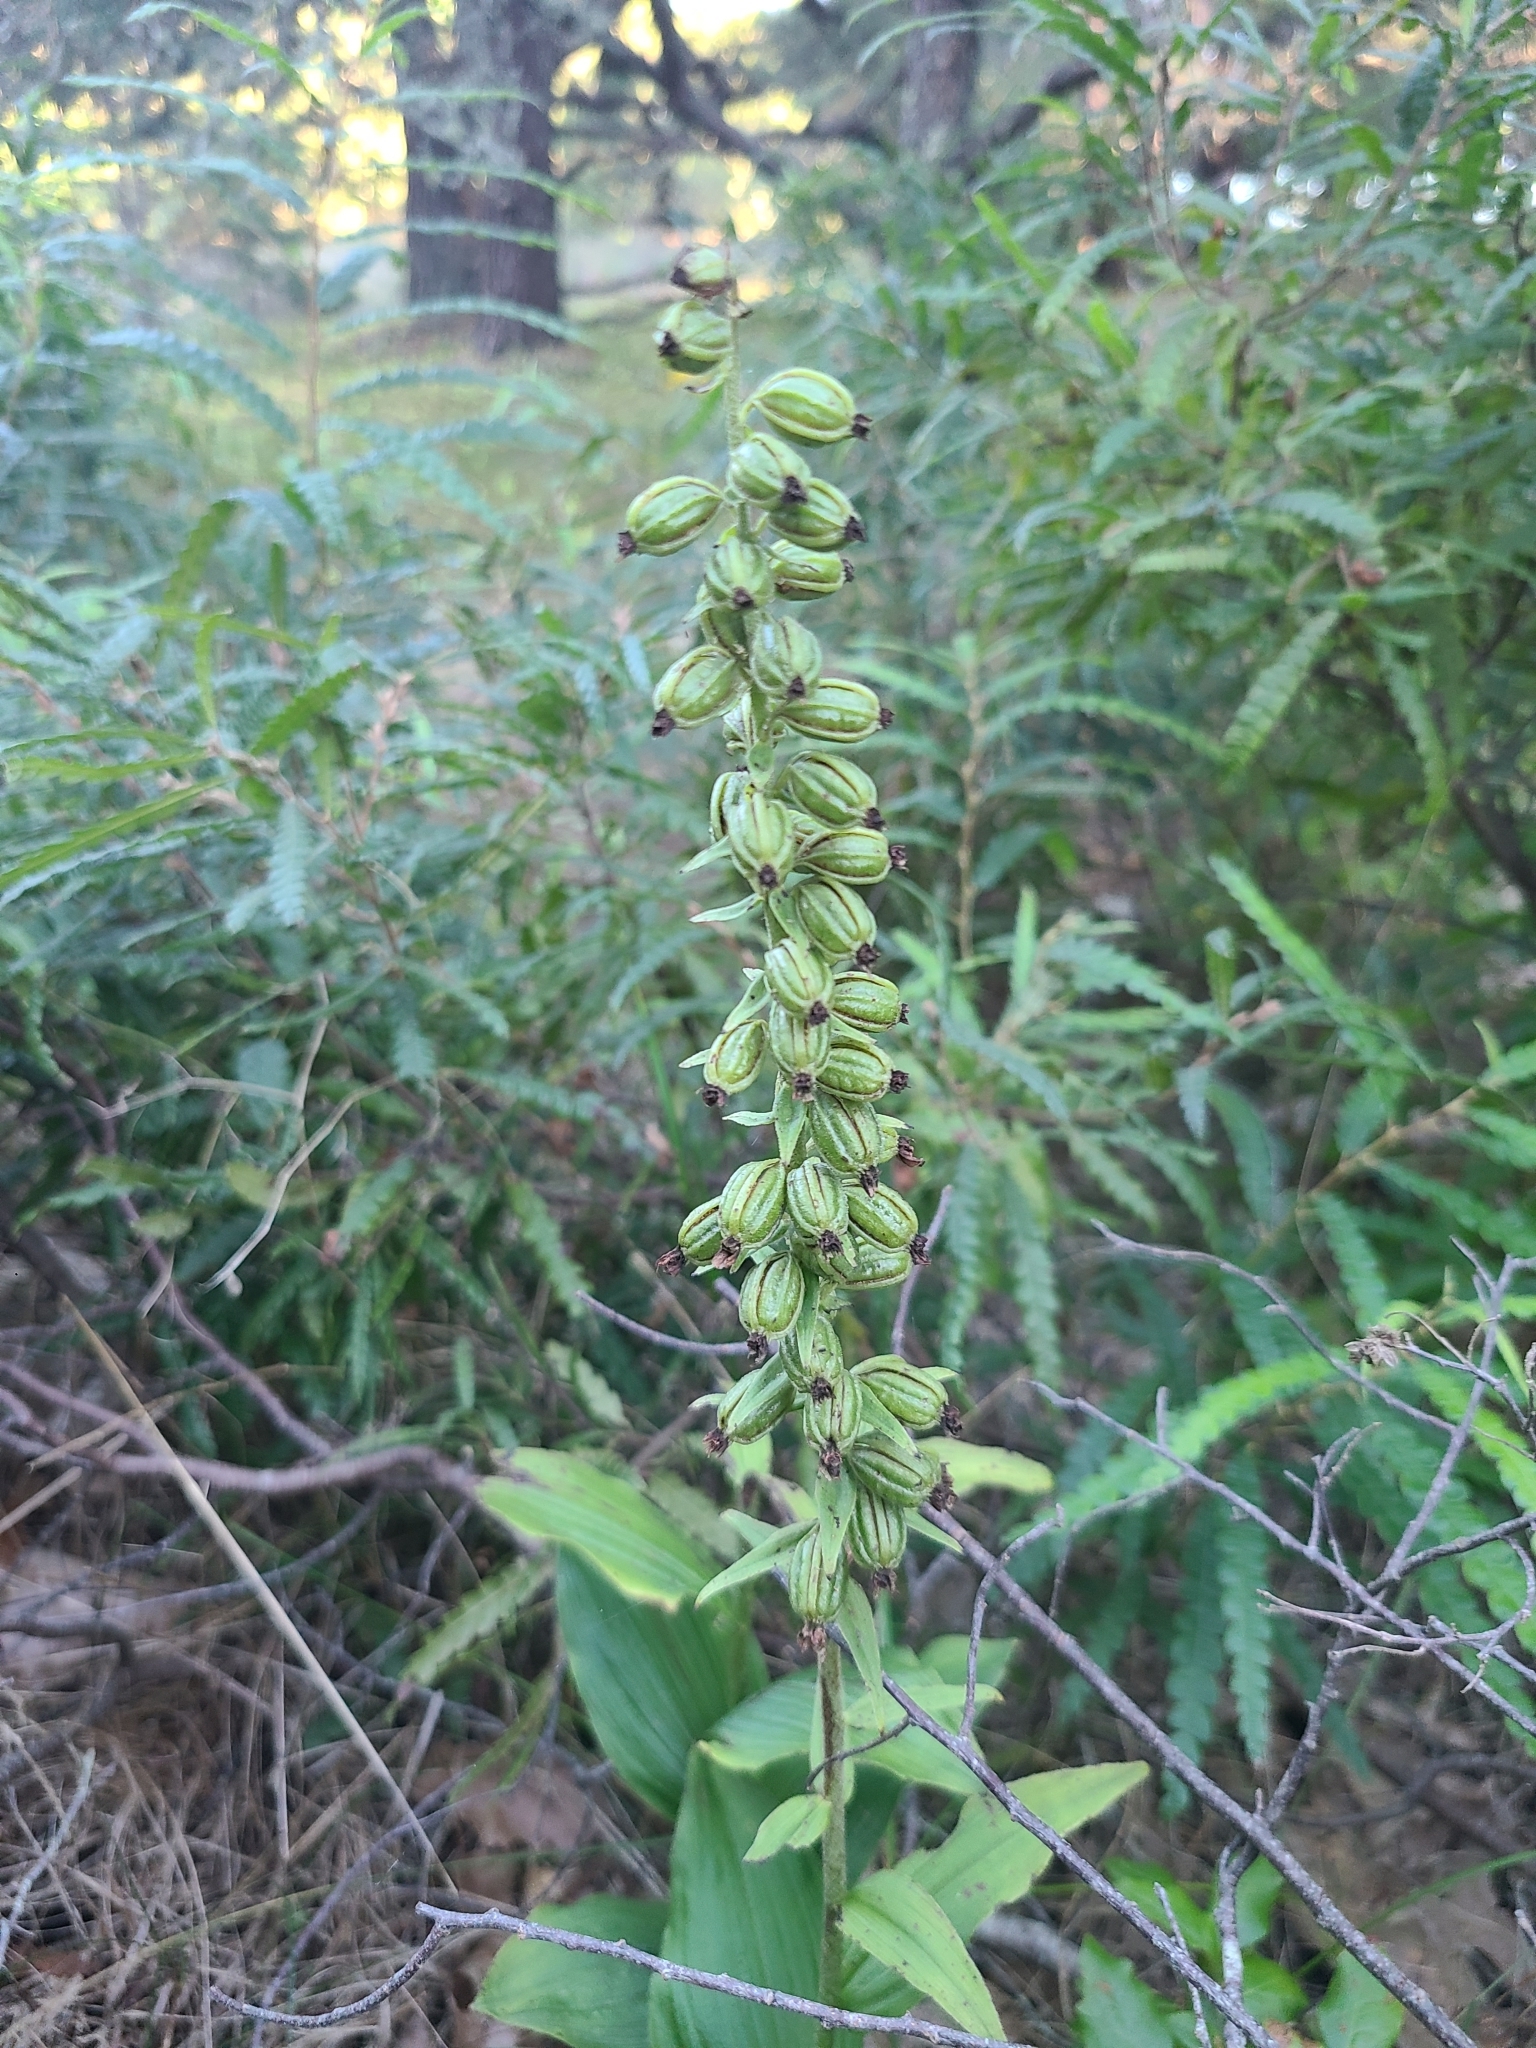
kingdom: Plantae
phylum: Tracheophyta
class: Liliopsida
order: Asparagales
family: Orchidaceae
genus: Epipactis
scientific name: Epipactis helleborine
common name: Broad-leaved helleborine
